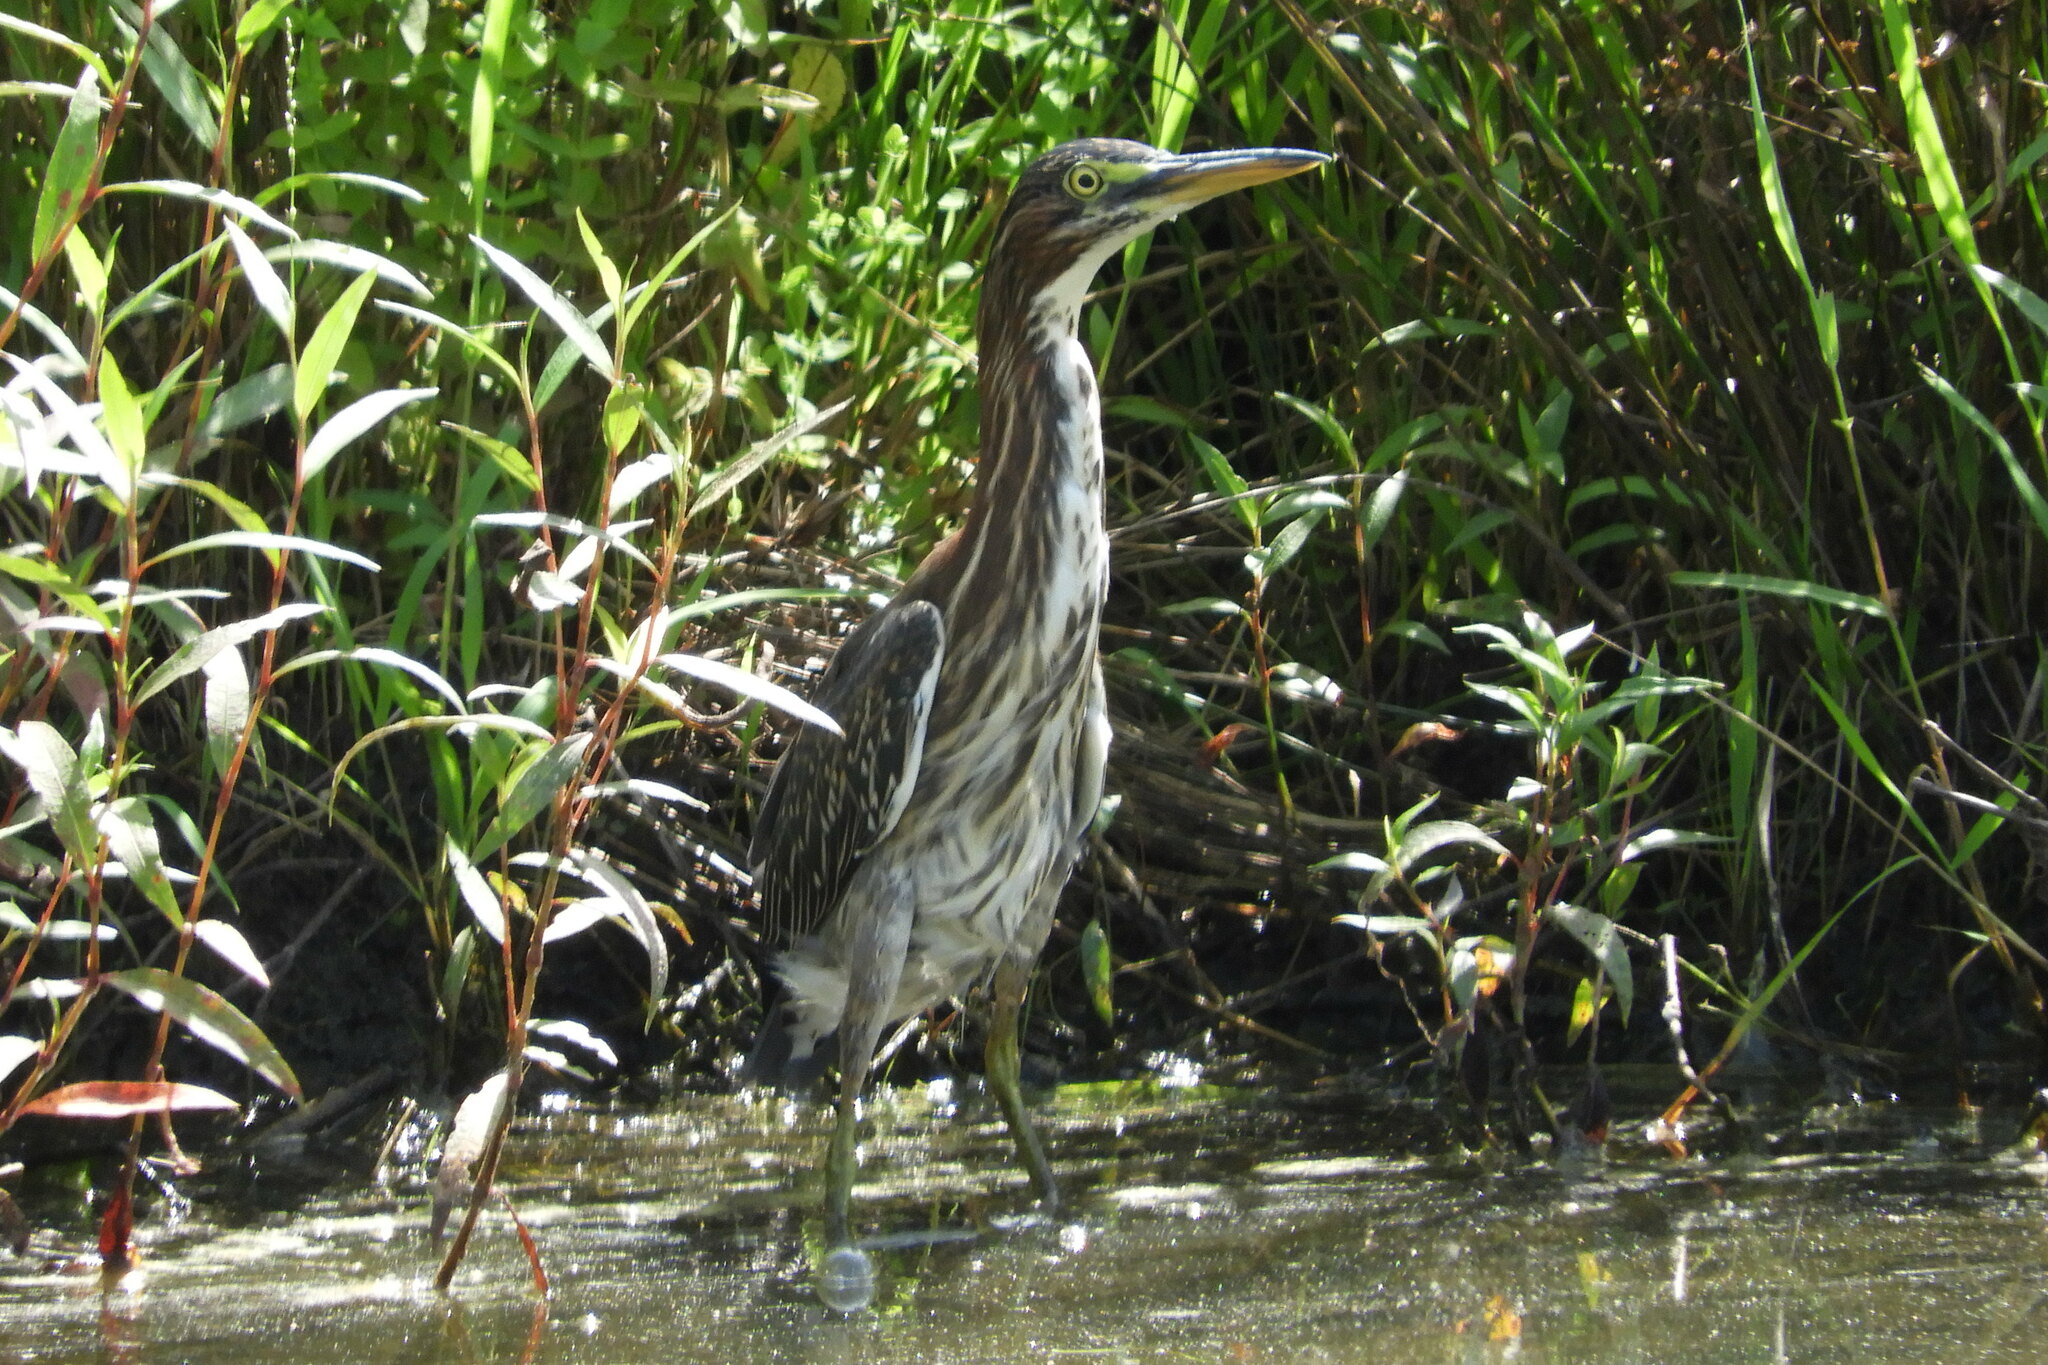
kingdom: Animalia
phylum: Chordata
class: Aves
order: Pelecaniformes
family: Ardeidae
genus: Butorides
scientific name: Butorides virescens
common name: Green heron
